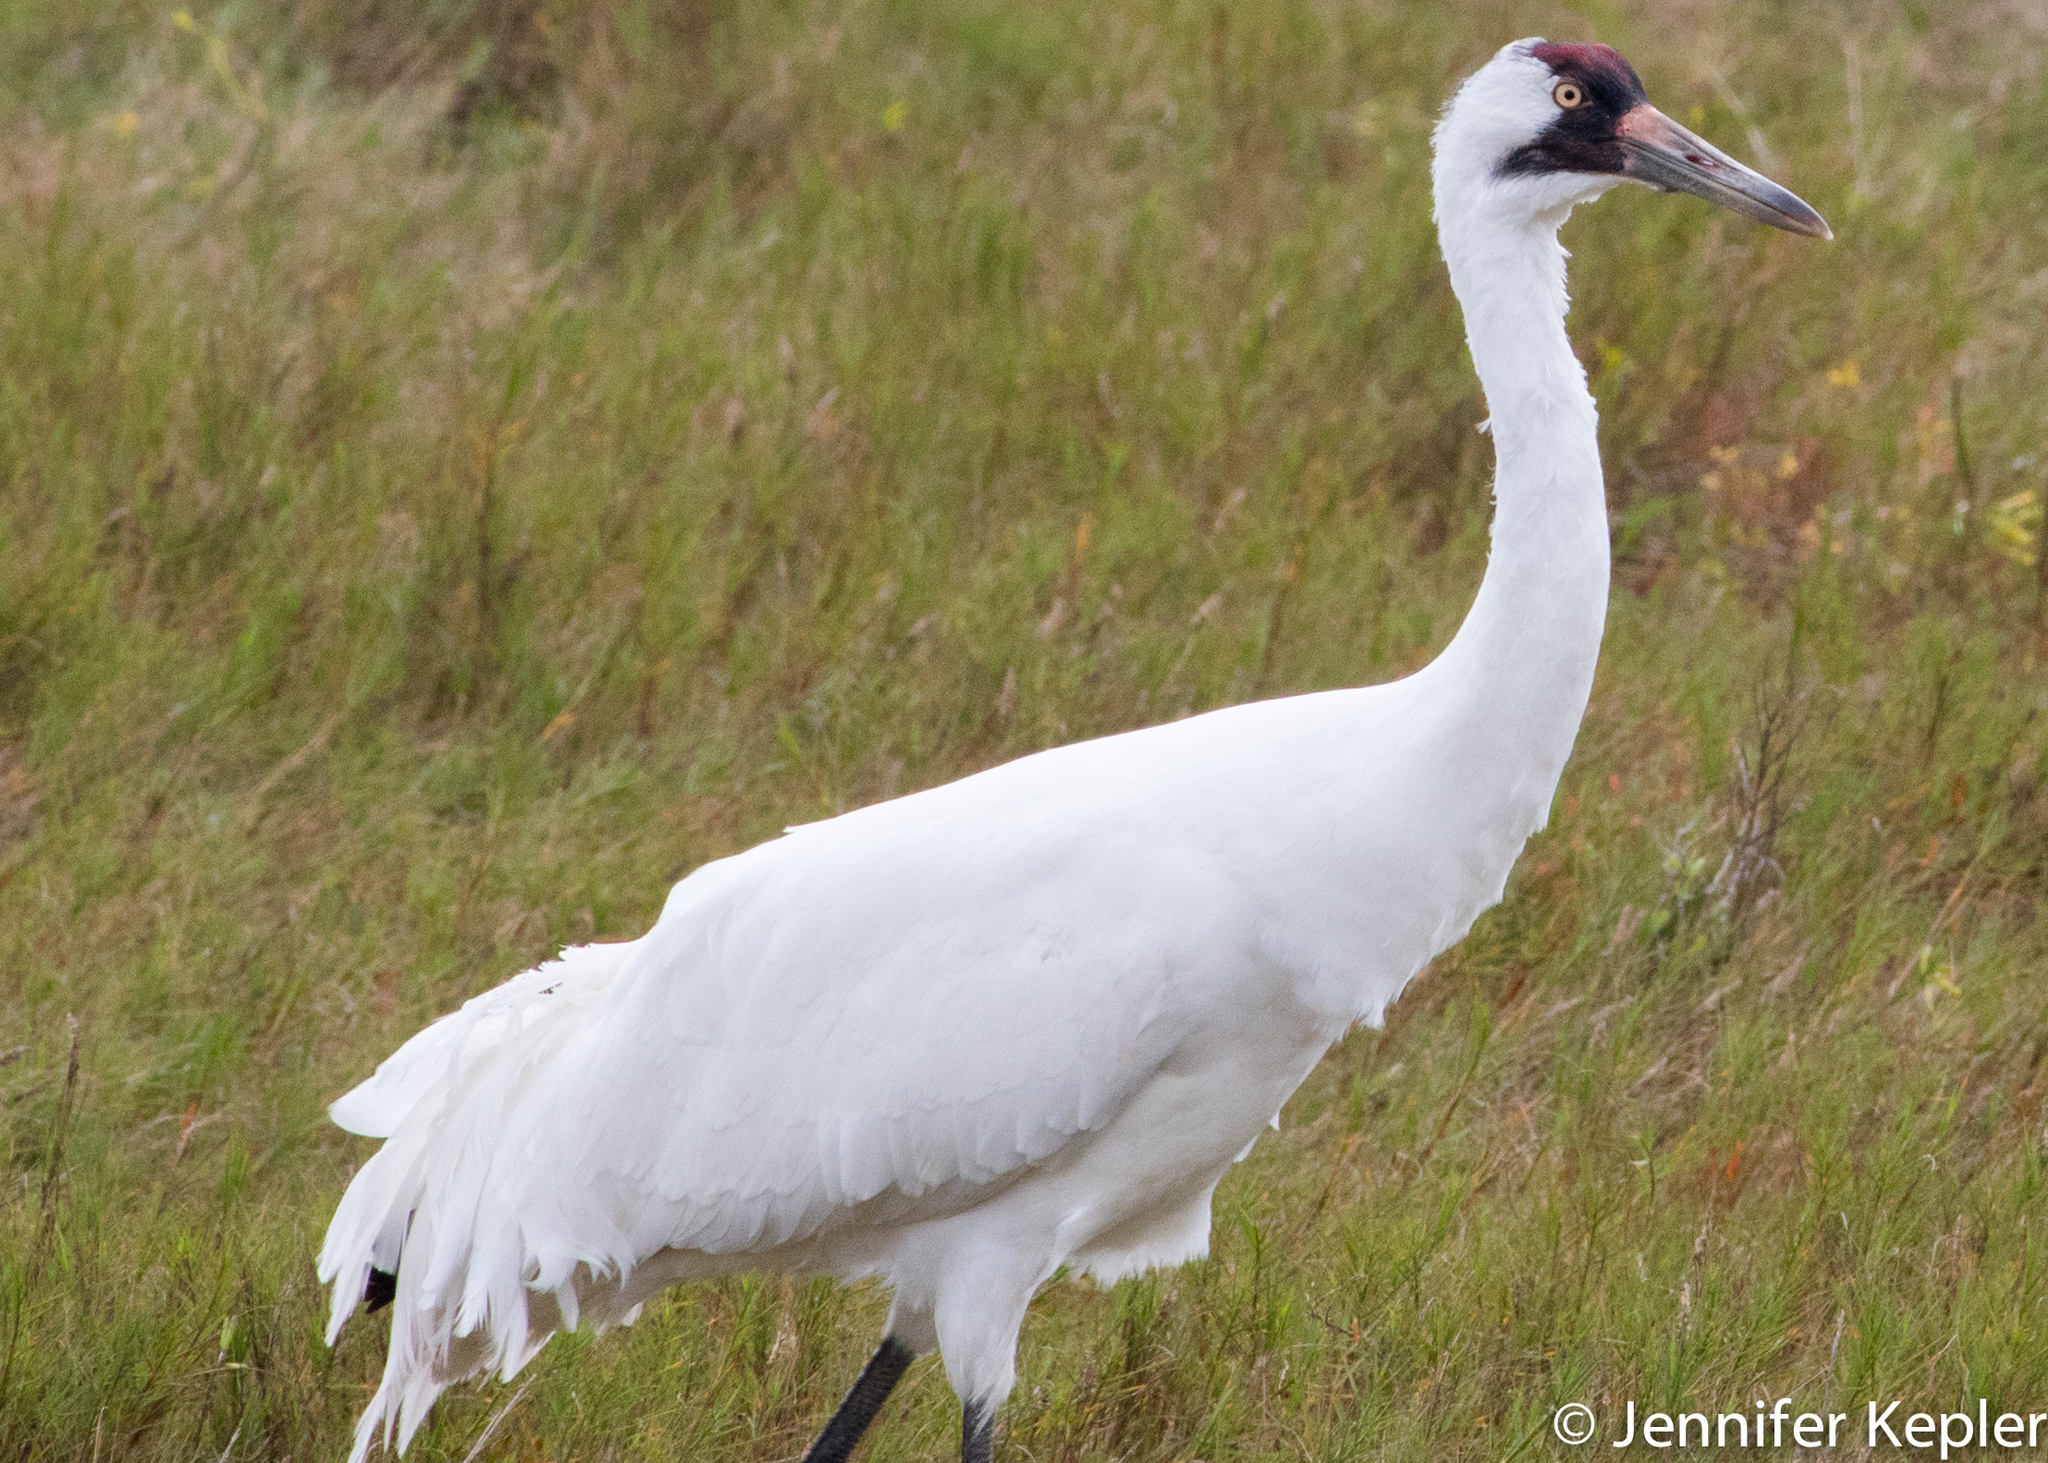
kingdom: Animalia
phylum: Chordata
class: Aves
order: Gruiformes
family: Gruidae
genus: Grus
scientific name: Grus americana
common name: Whooping crane
